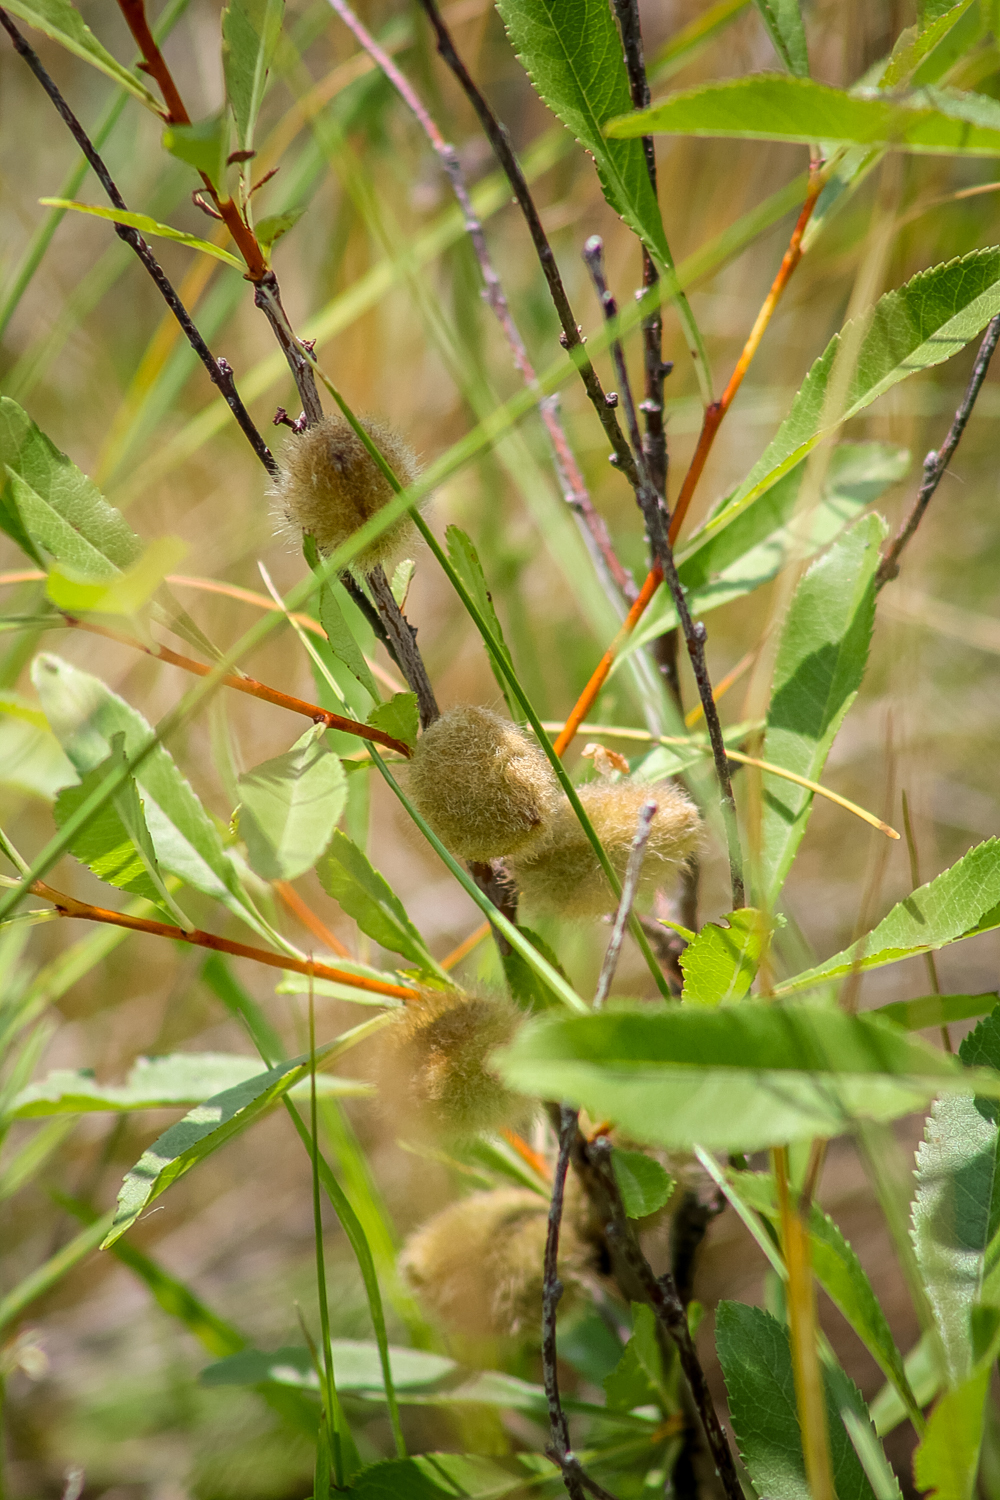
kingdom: Plantae
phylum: Tracheophyta
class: Magnoliopsida
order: Rosales
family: Rosaceae
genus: Prunus
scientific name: Prunus tenella
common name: Dwarf russian almond
